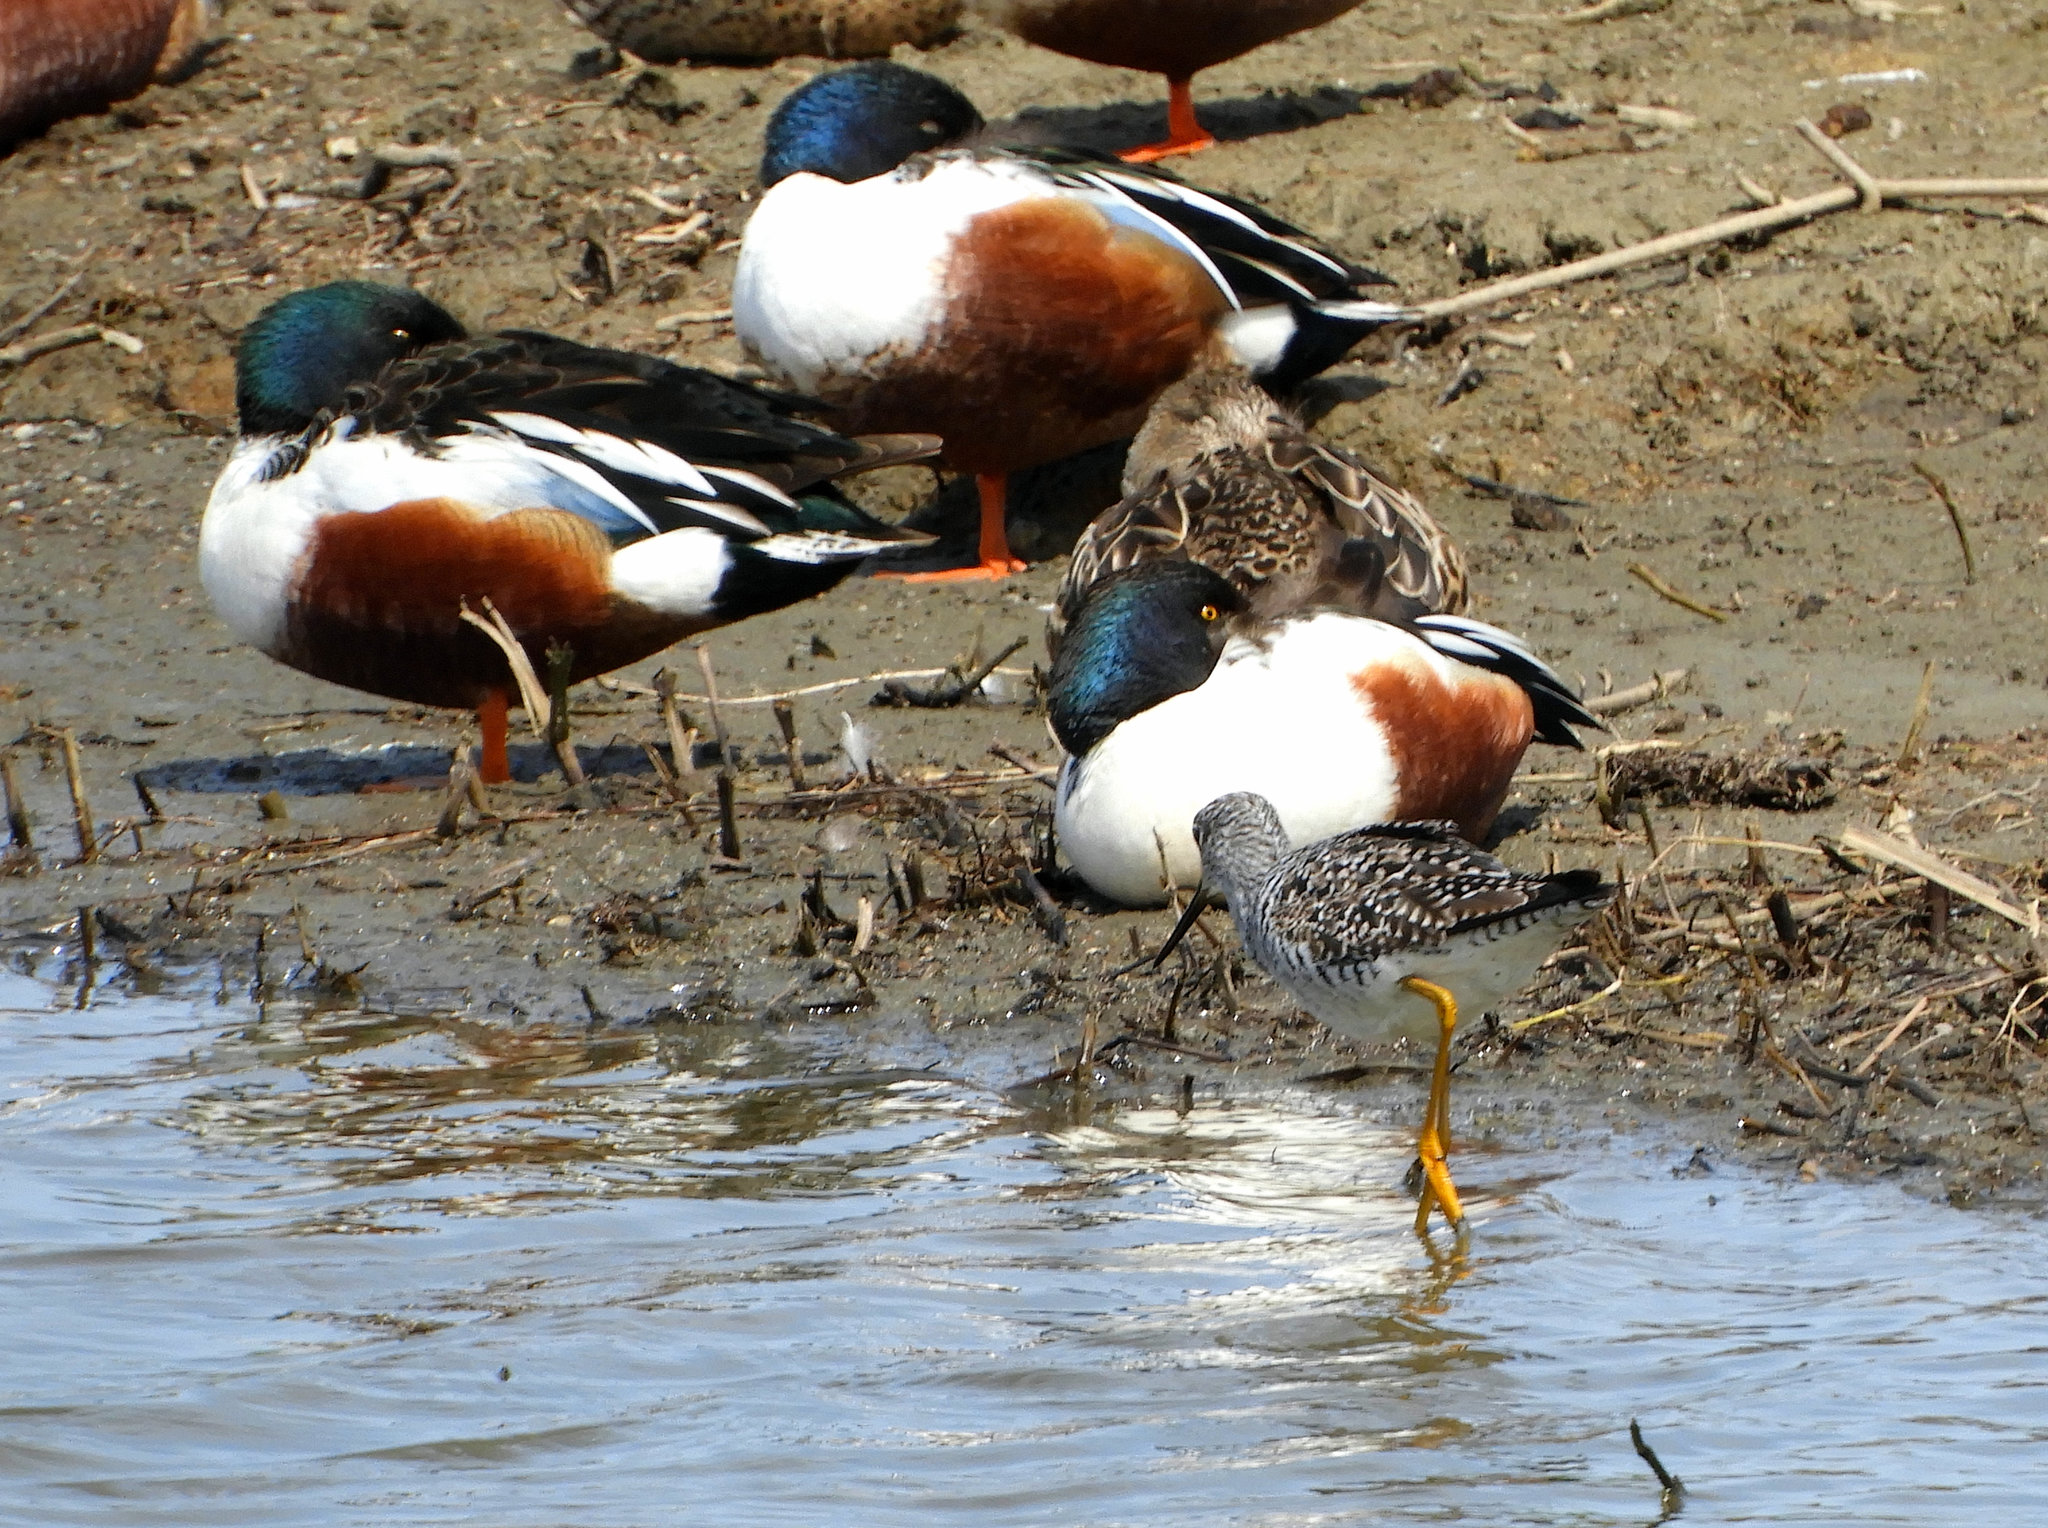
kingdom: Animalia
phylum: Chordata
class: Aves
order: Anseriformes
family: Anatidae
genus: Spatula
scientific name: Spatula clypeata
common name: Northern shoveler
